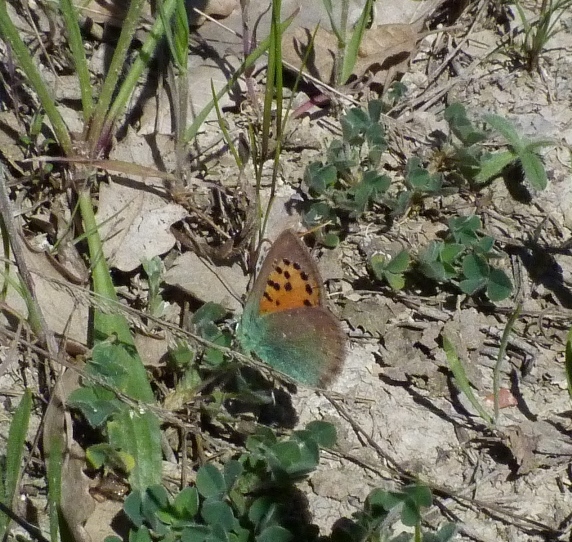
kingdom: Animalia
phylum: Arthropoda
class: Insecta
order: Lepidoptera
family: Lycaenidae
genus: Tomares
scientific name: Tomares ballus
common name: Provence hairstreak
